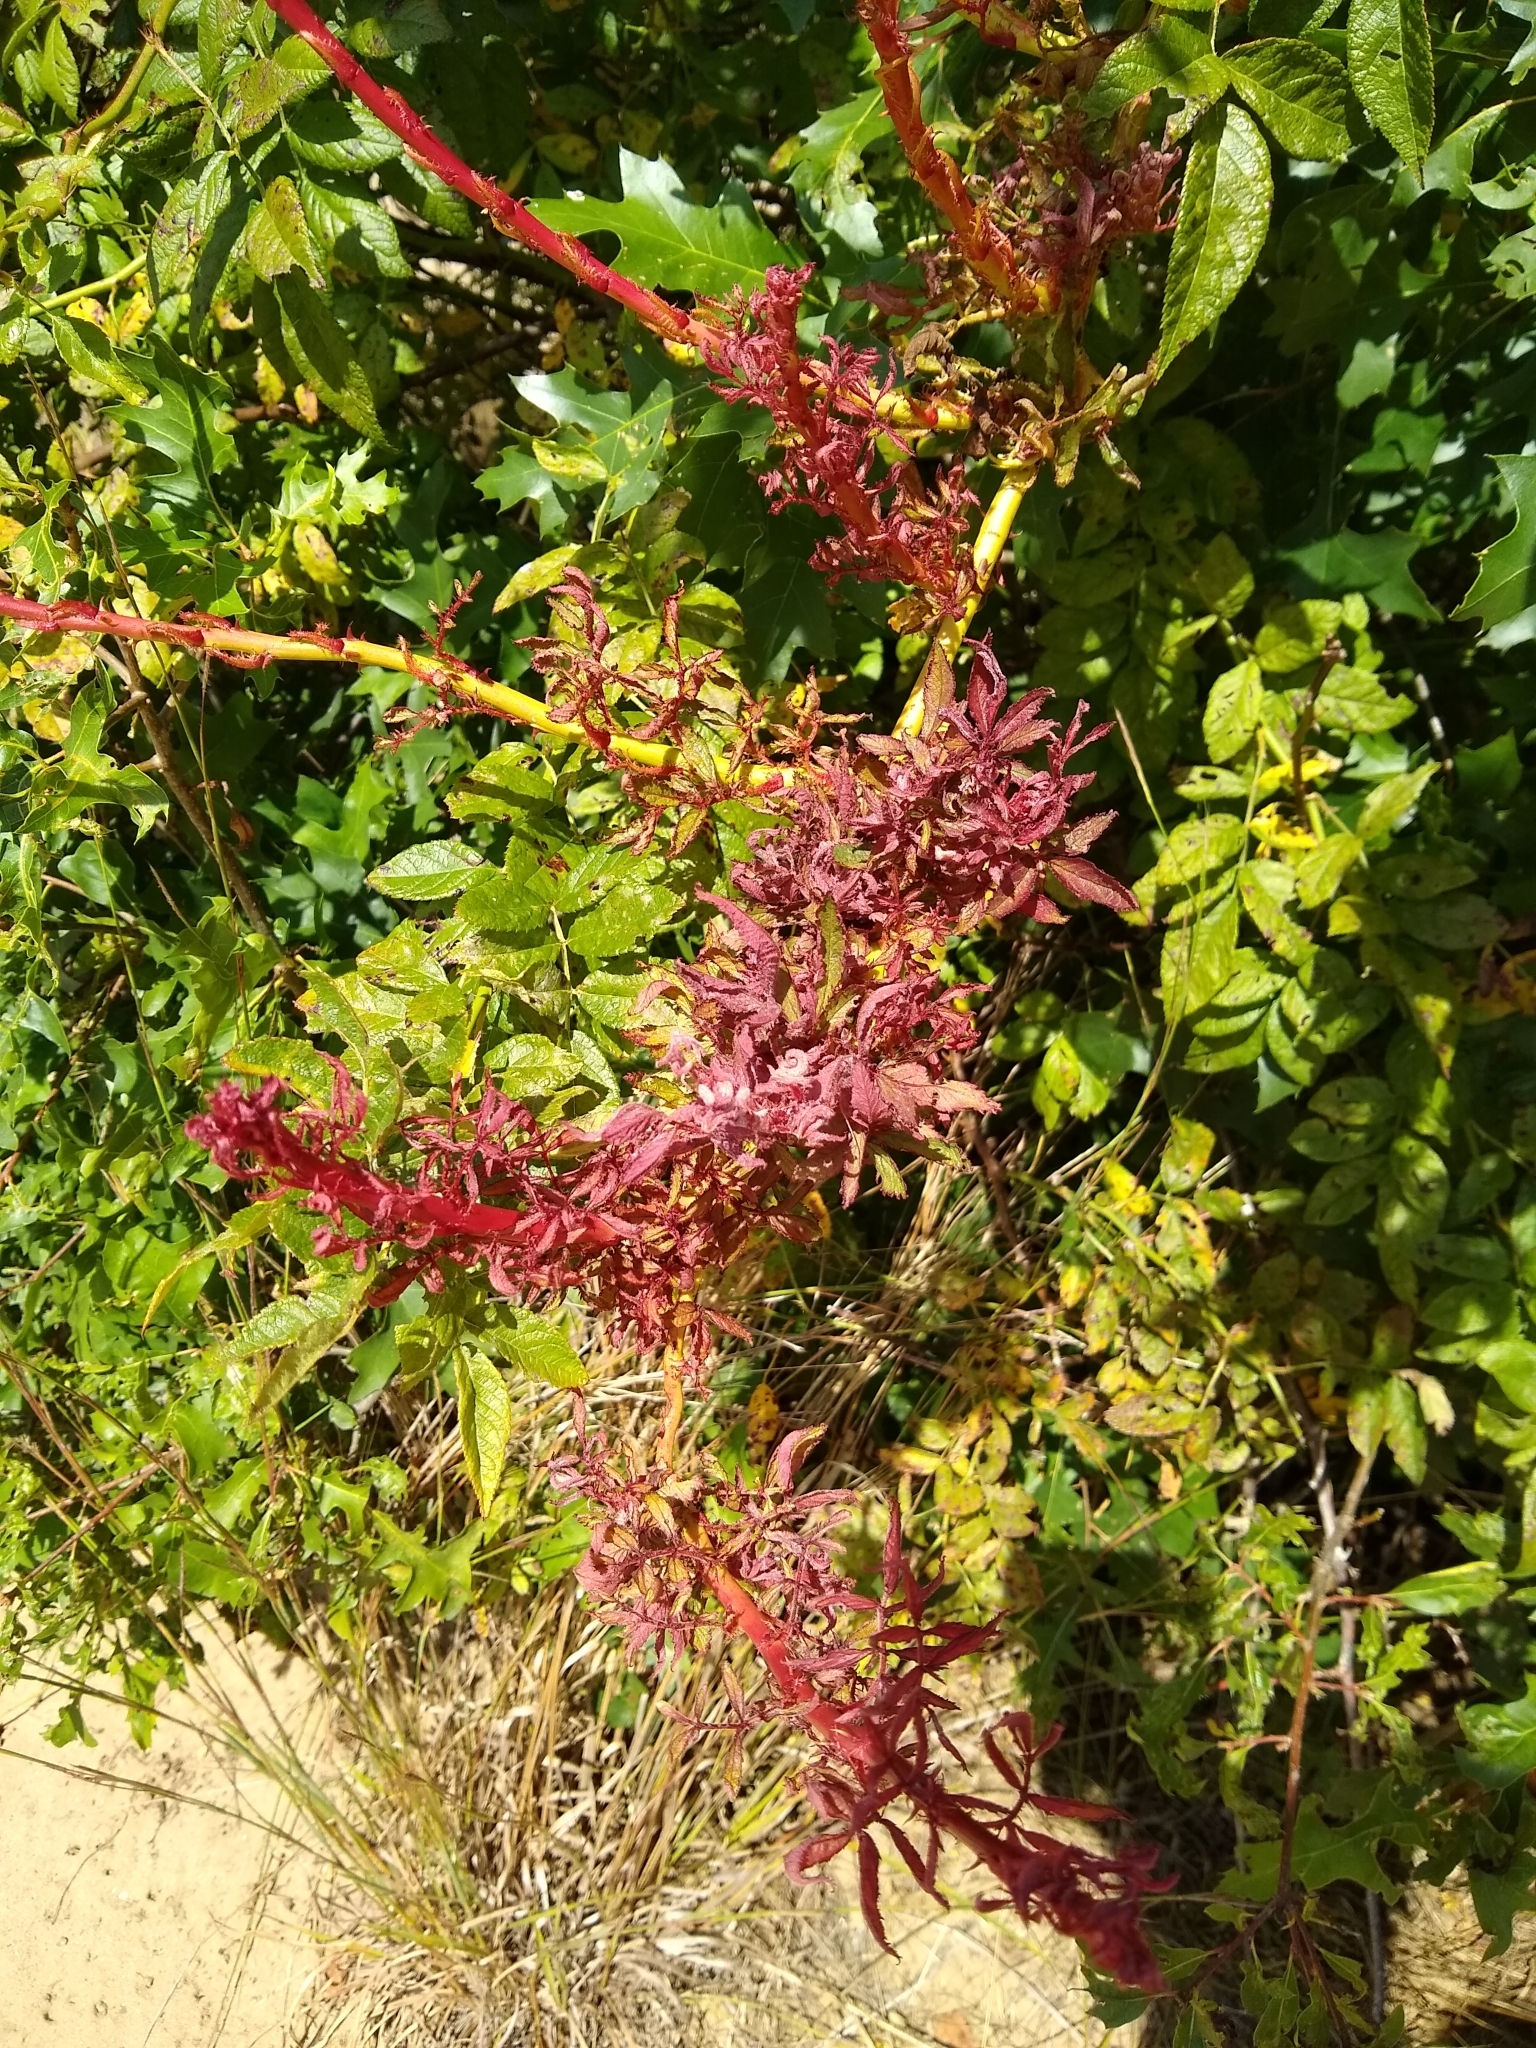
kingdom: Viruses
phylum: Negarnaviricota
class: Ellioviricetes
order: Bunyavirales
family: Fimoviridae
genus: Emaravirus
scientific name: Emaravirus rosae
